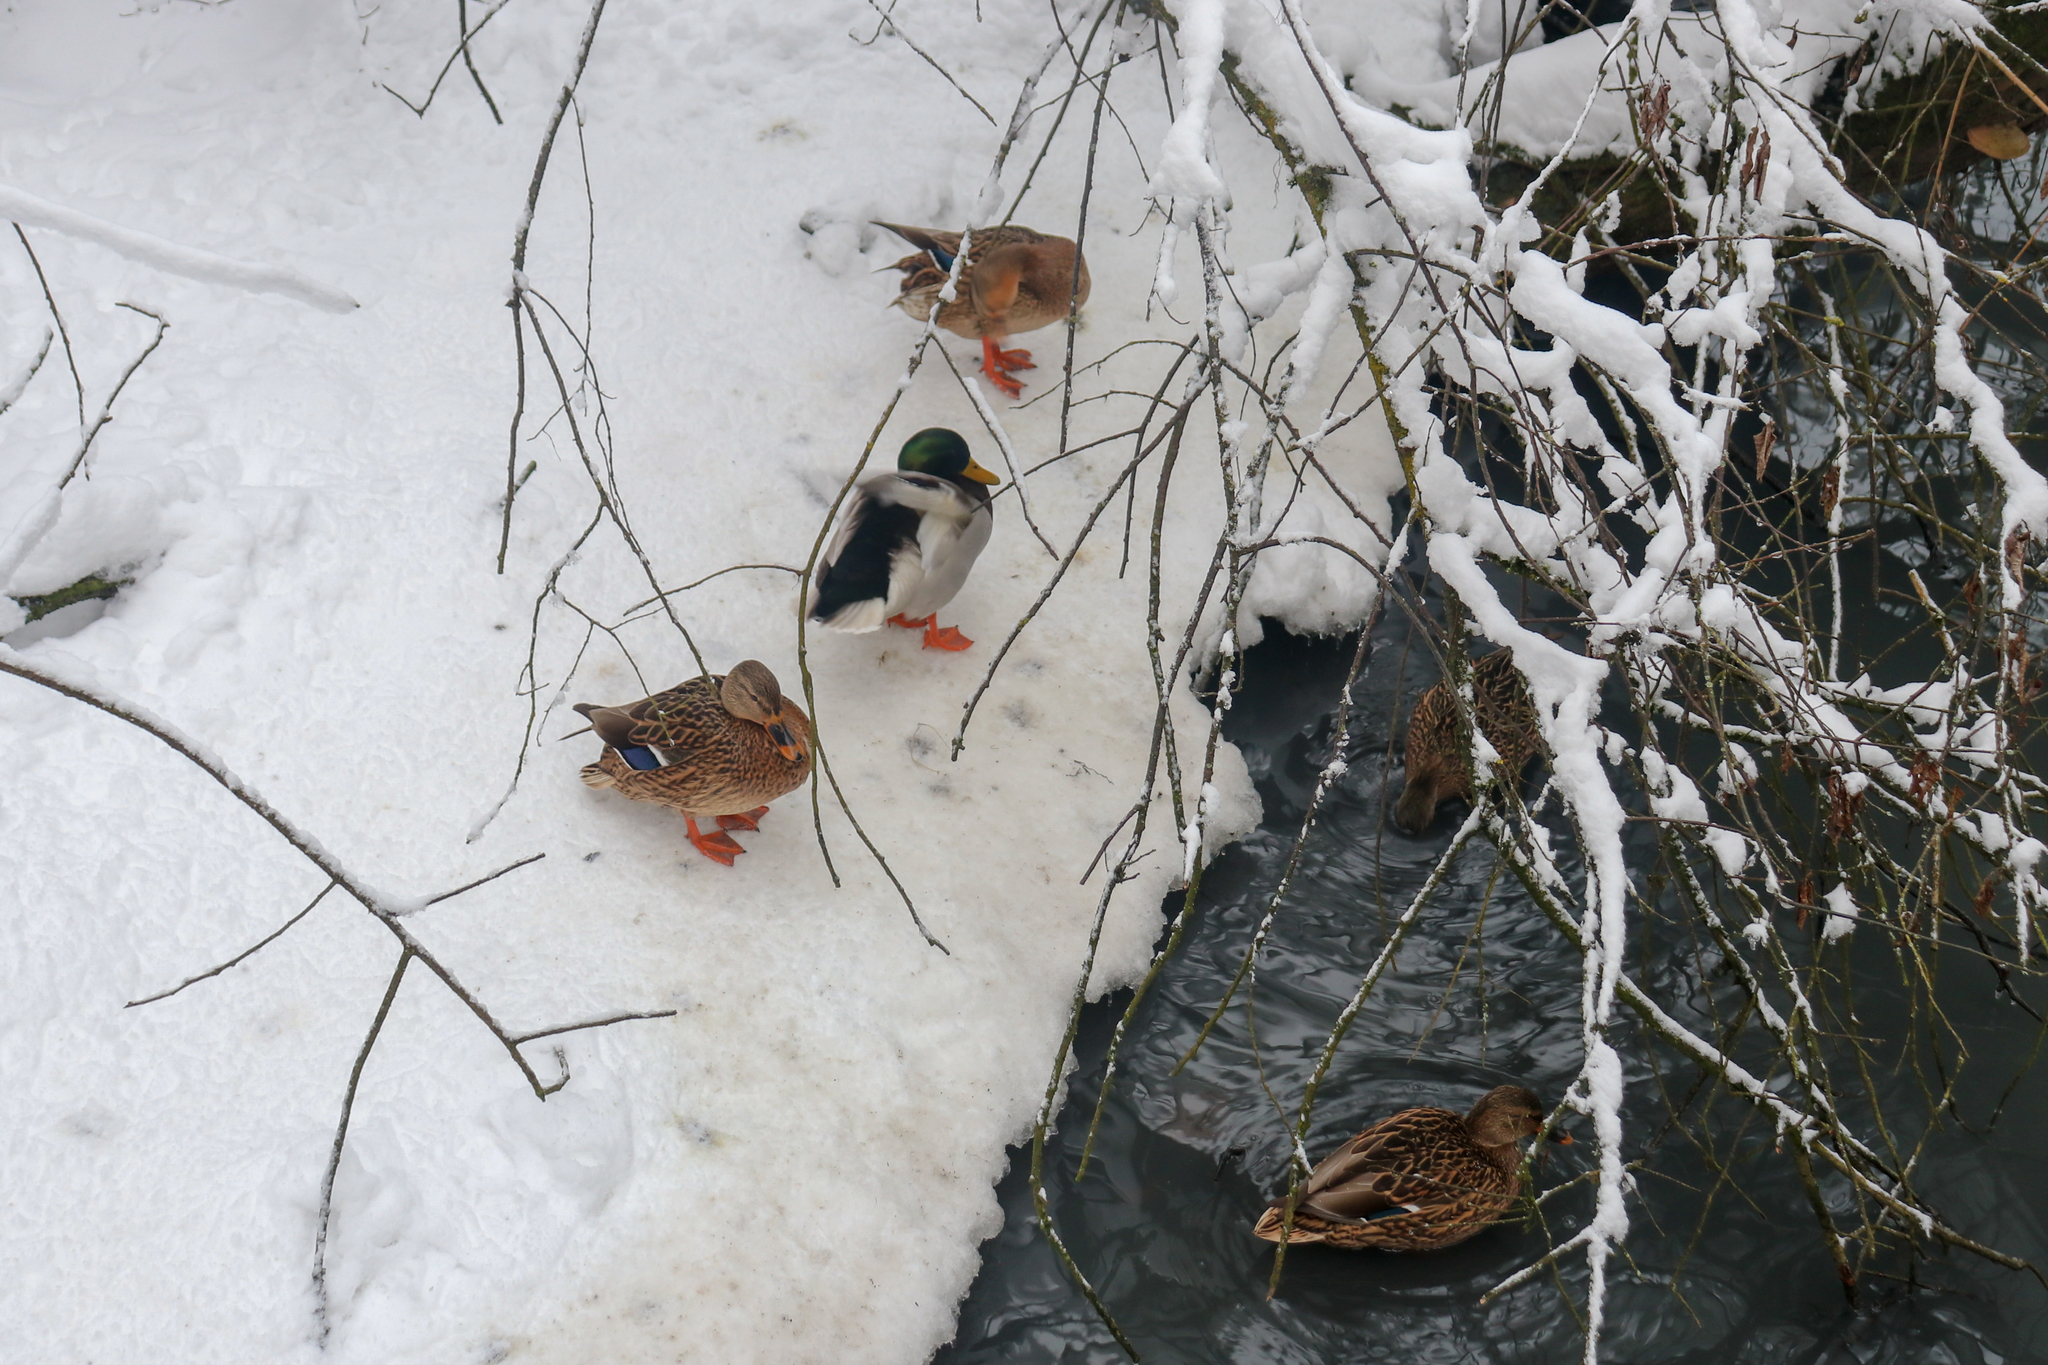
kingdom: Animalia
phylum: Chordata
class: Aves
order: Anseriformes
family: Anatidae
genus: Anas
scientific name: Anas platyrhynchos
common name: Mallard
